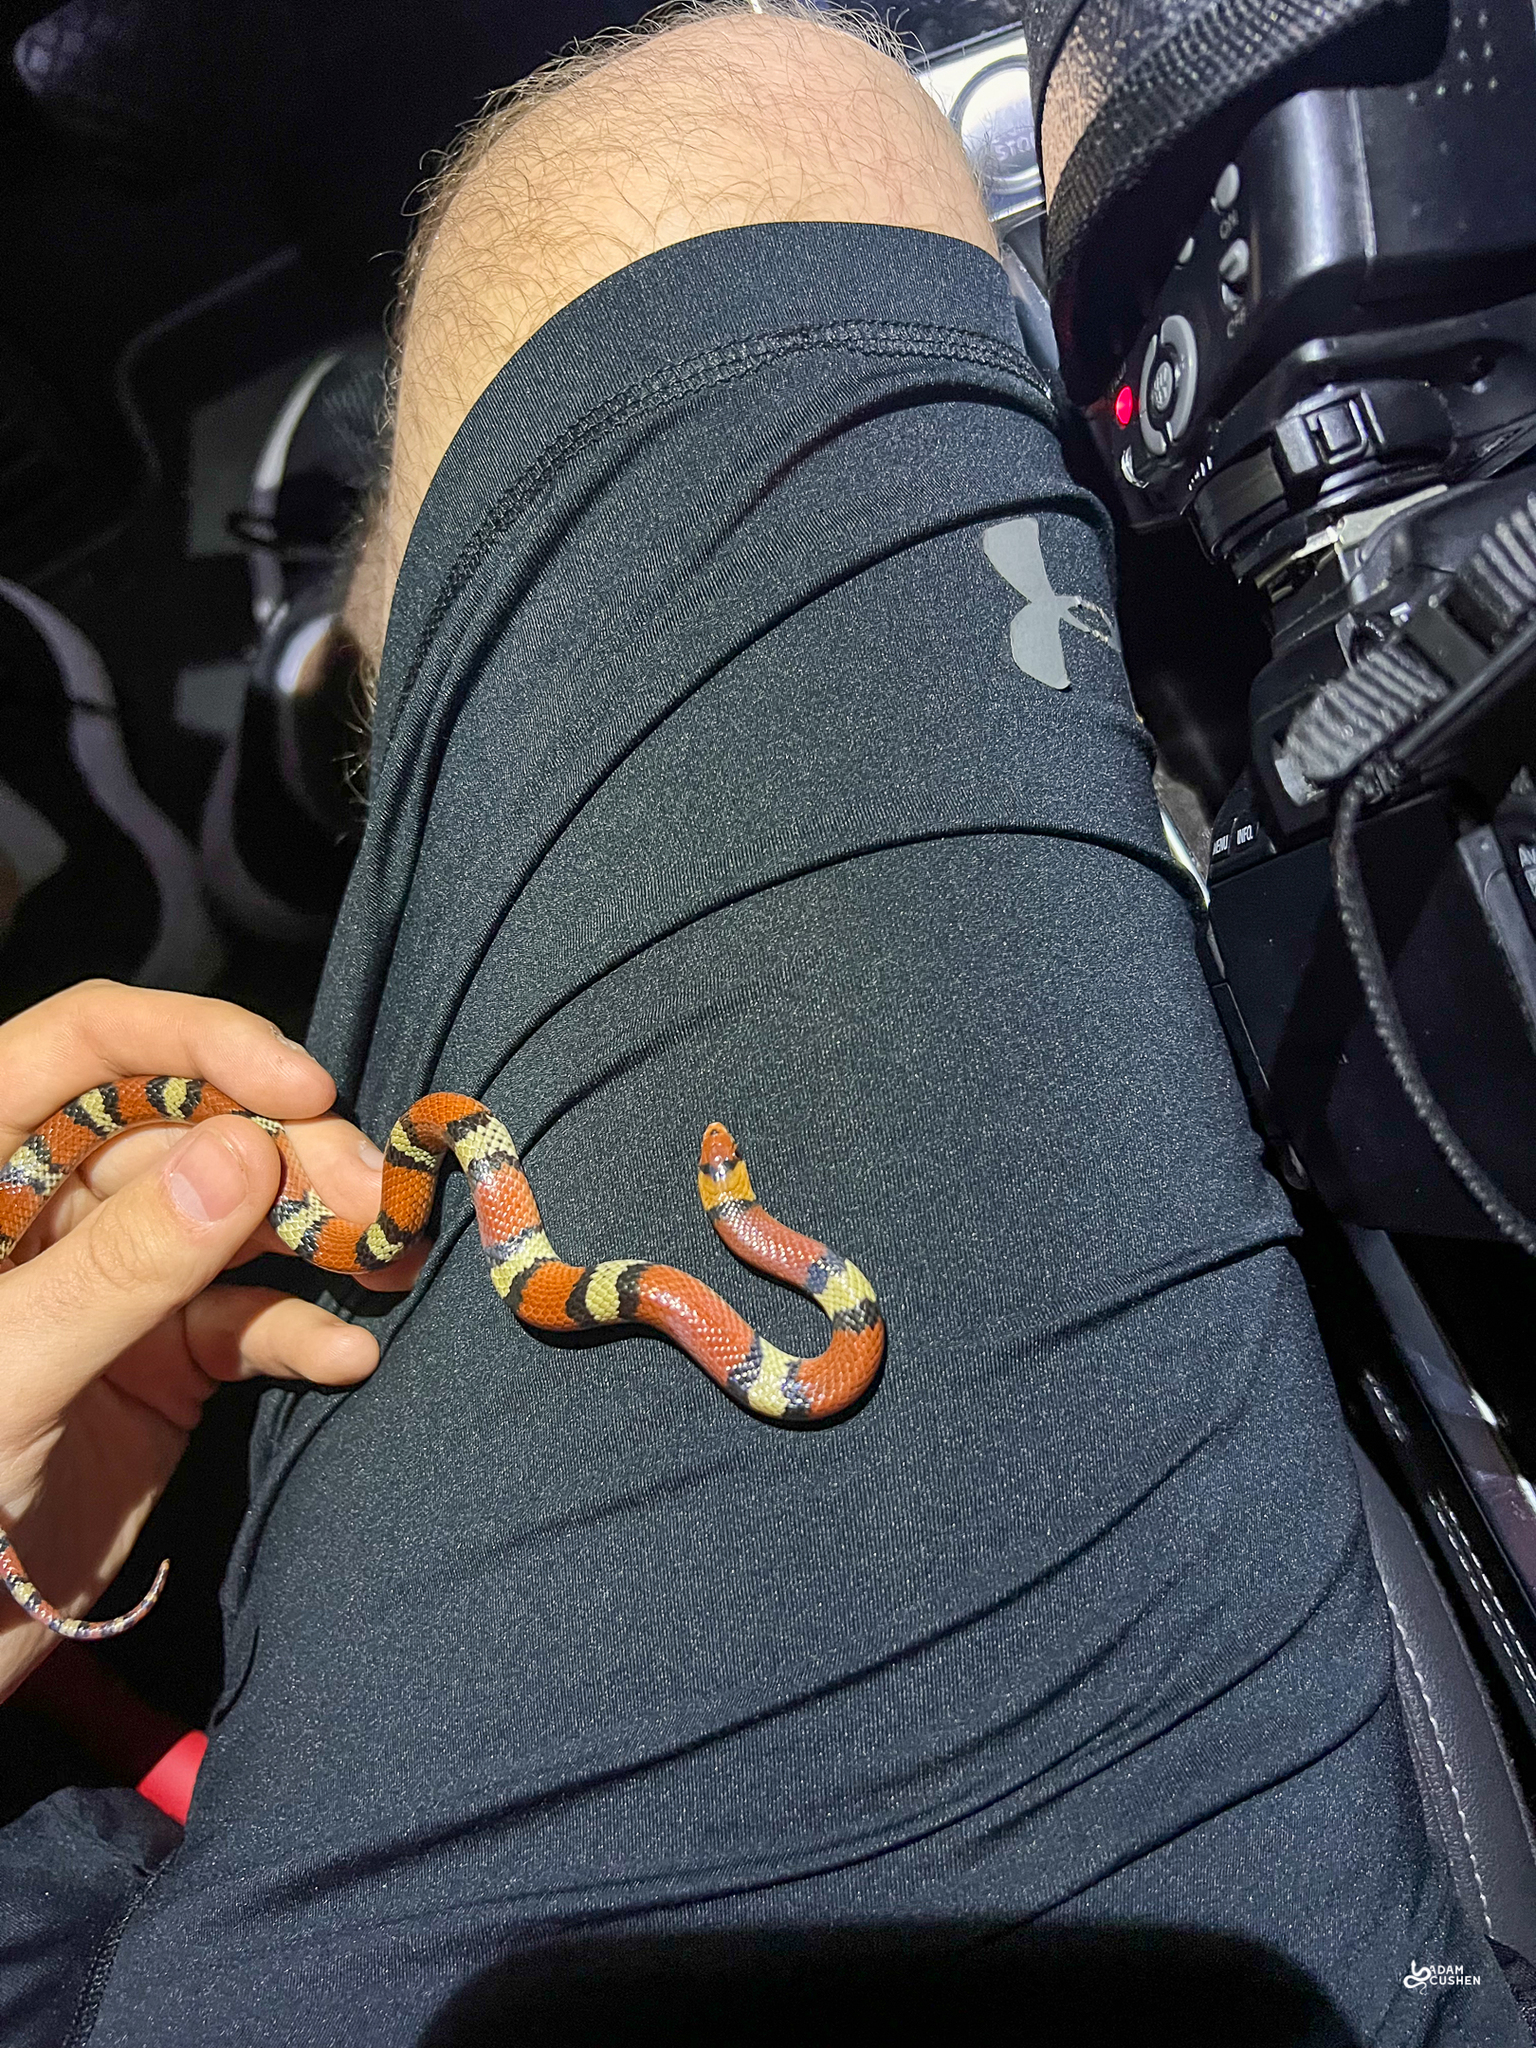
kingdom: Animalia
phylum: Chordata
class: Squamata
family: Colubridae
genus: Cemophora
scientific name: Cemophora coccinea
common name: Scarlet snake
